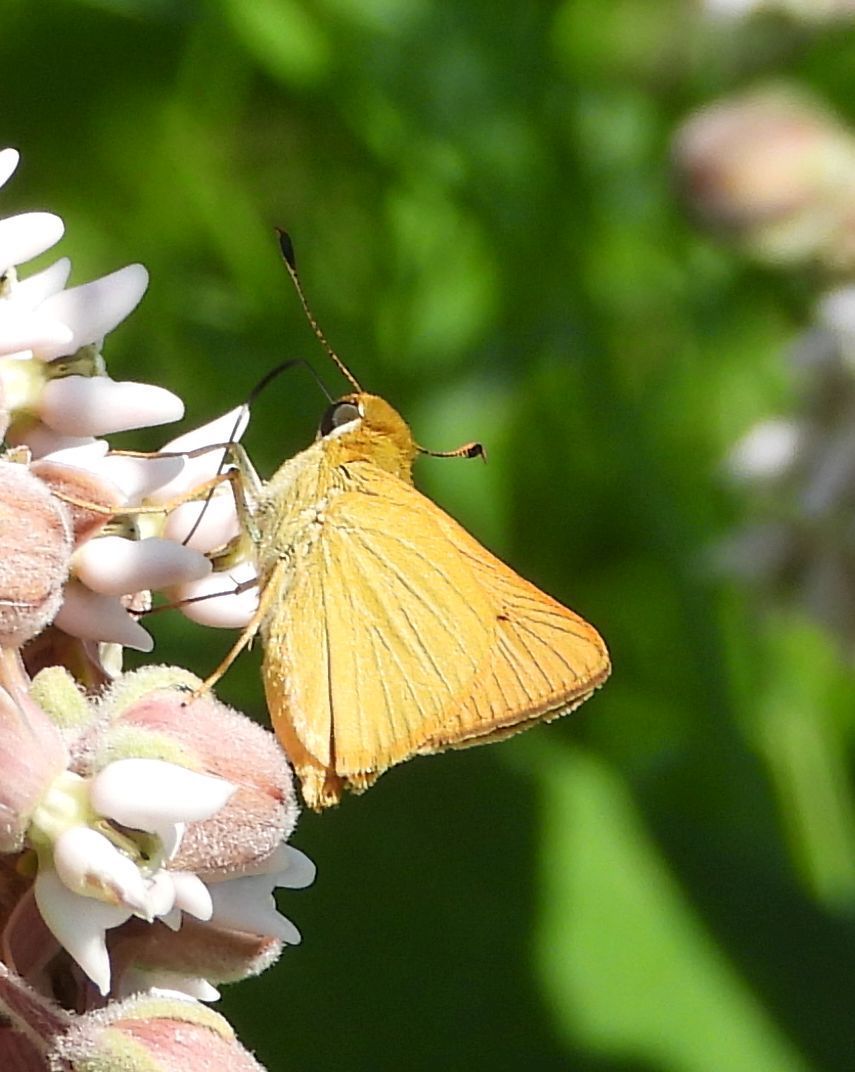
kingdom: Animalia
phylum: Arthropoda
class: Insecta
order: Lepidoptera
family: Hesperiidae
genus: Atrytone
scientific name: Atrytone delaware
